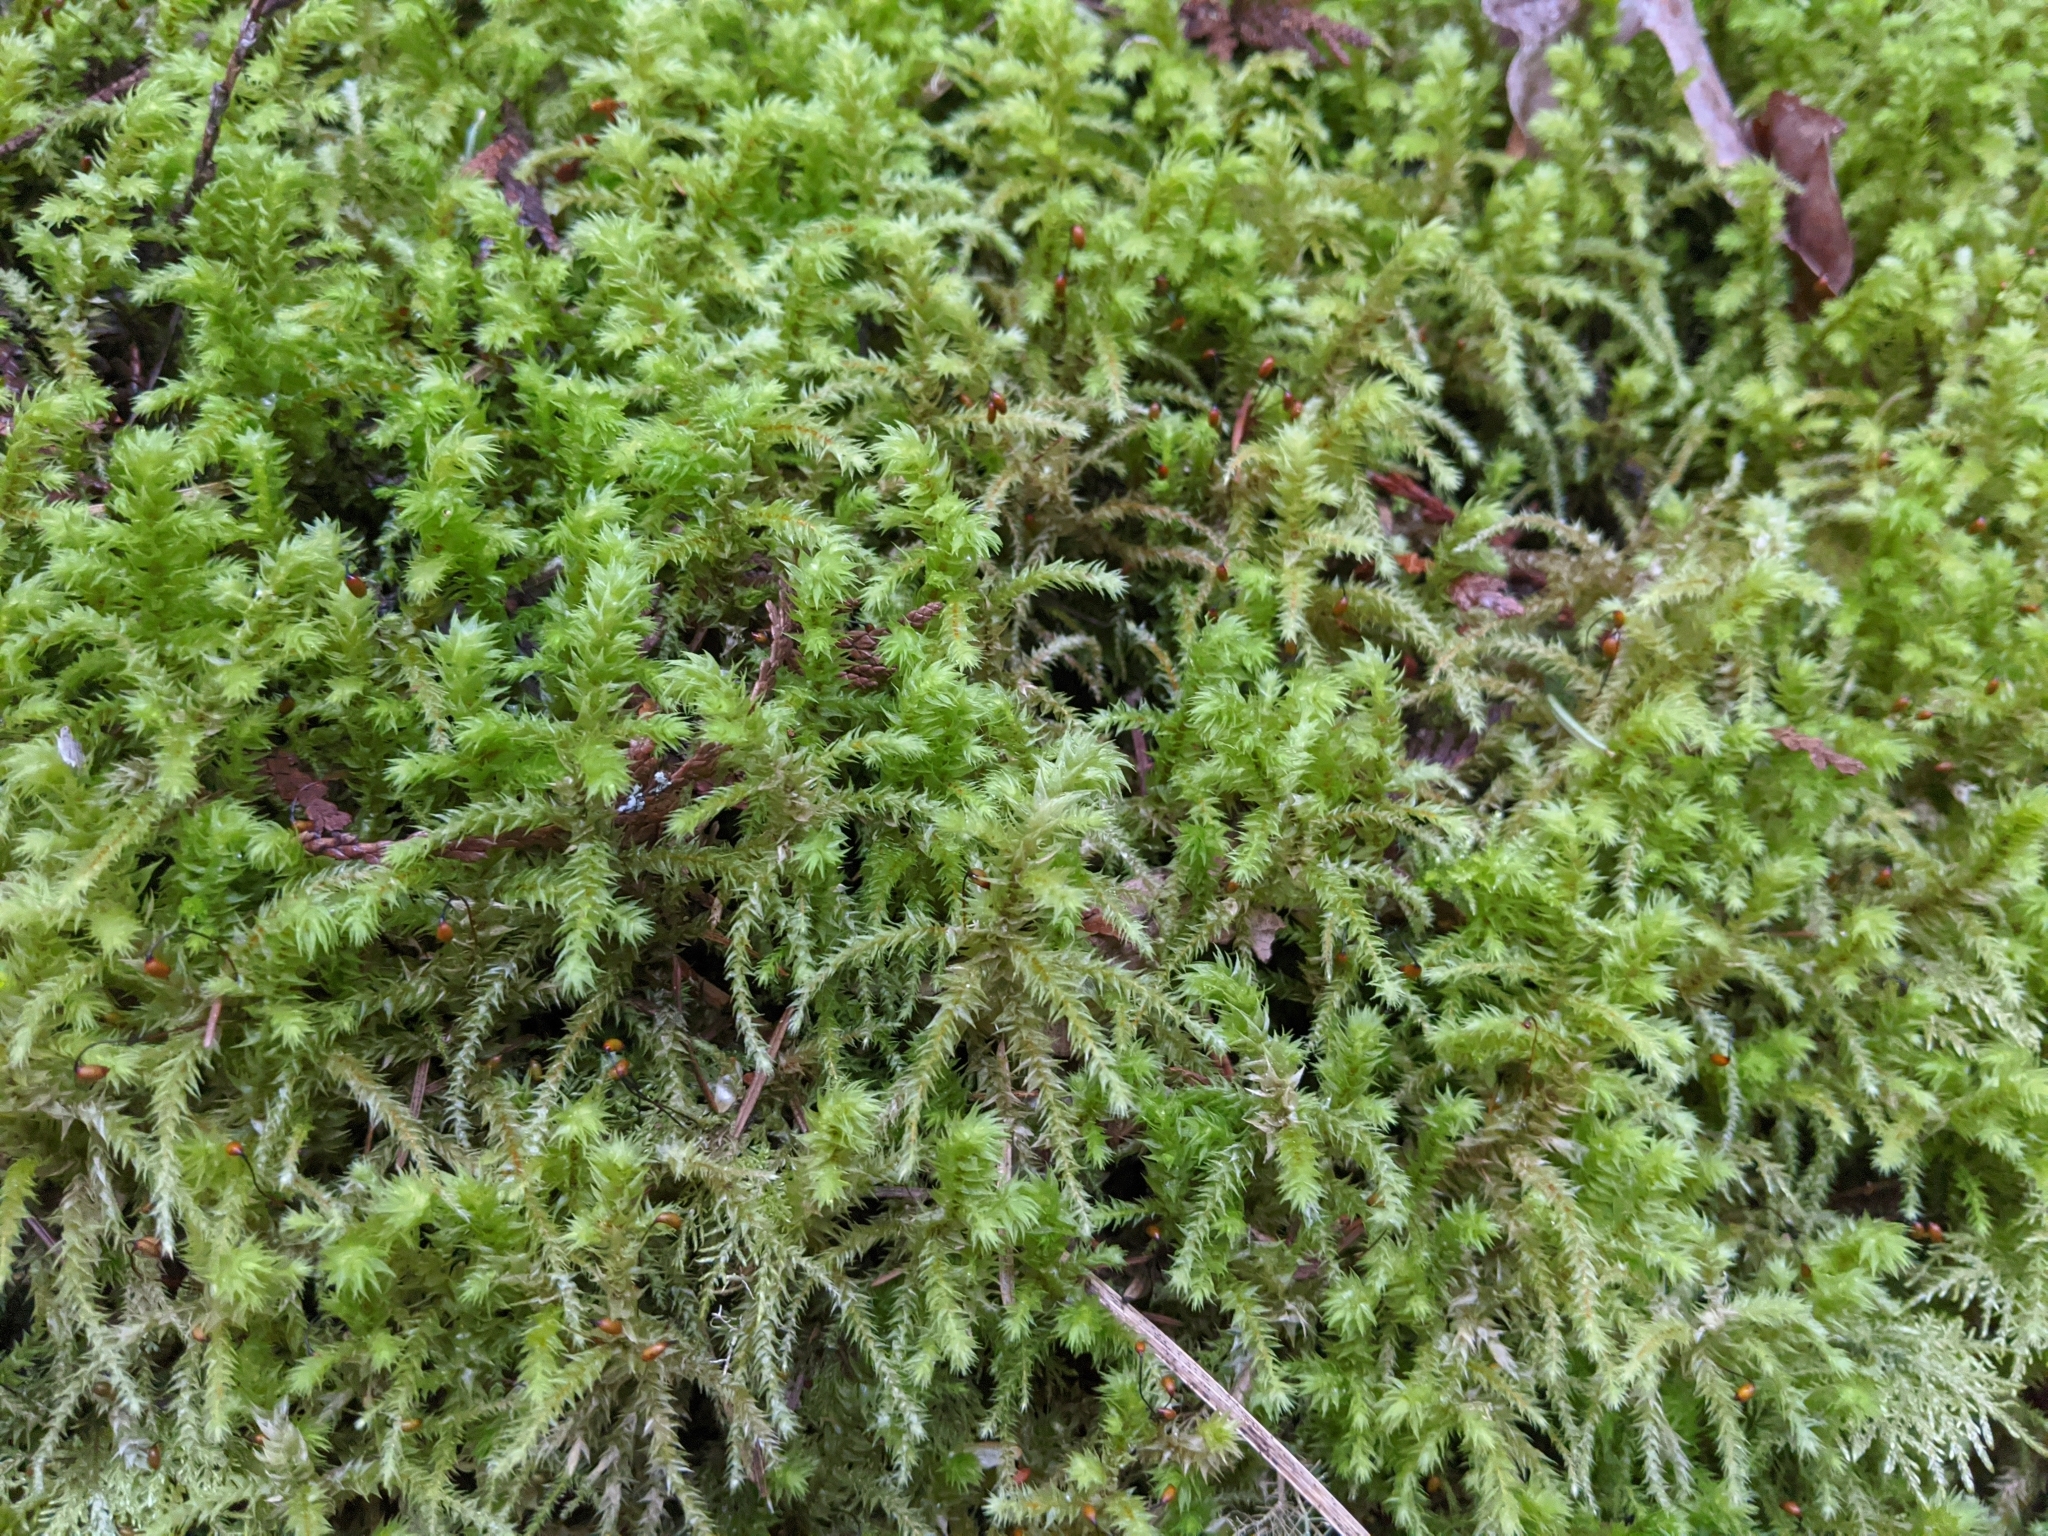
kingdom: Plantae
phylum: Bryophyta
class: Bryopsida
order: Hypnales
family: Hylocomiaceae
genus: Hylocomiadelphus
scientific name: Hylocomiadelphus triquetrus
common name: Rough goose neck moss
